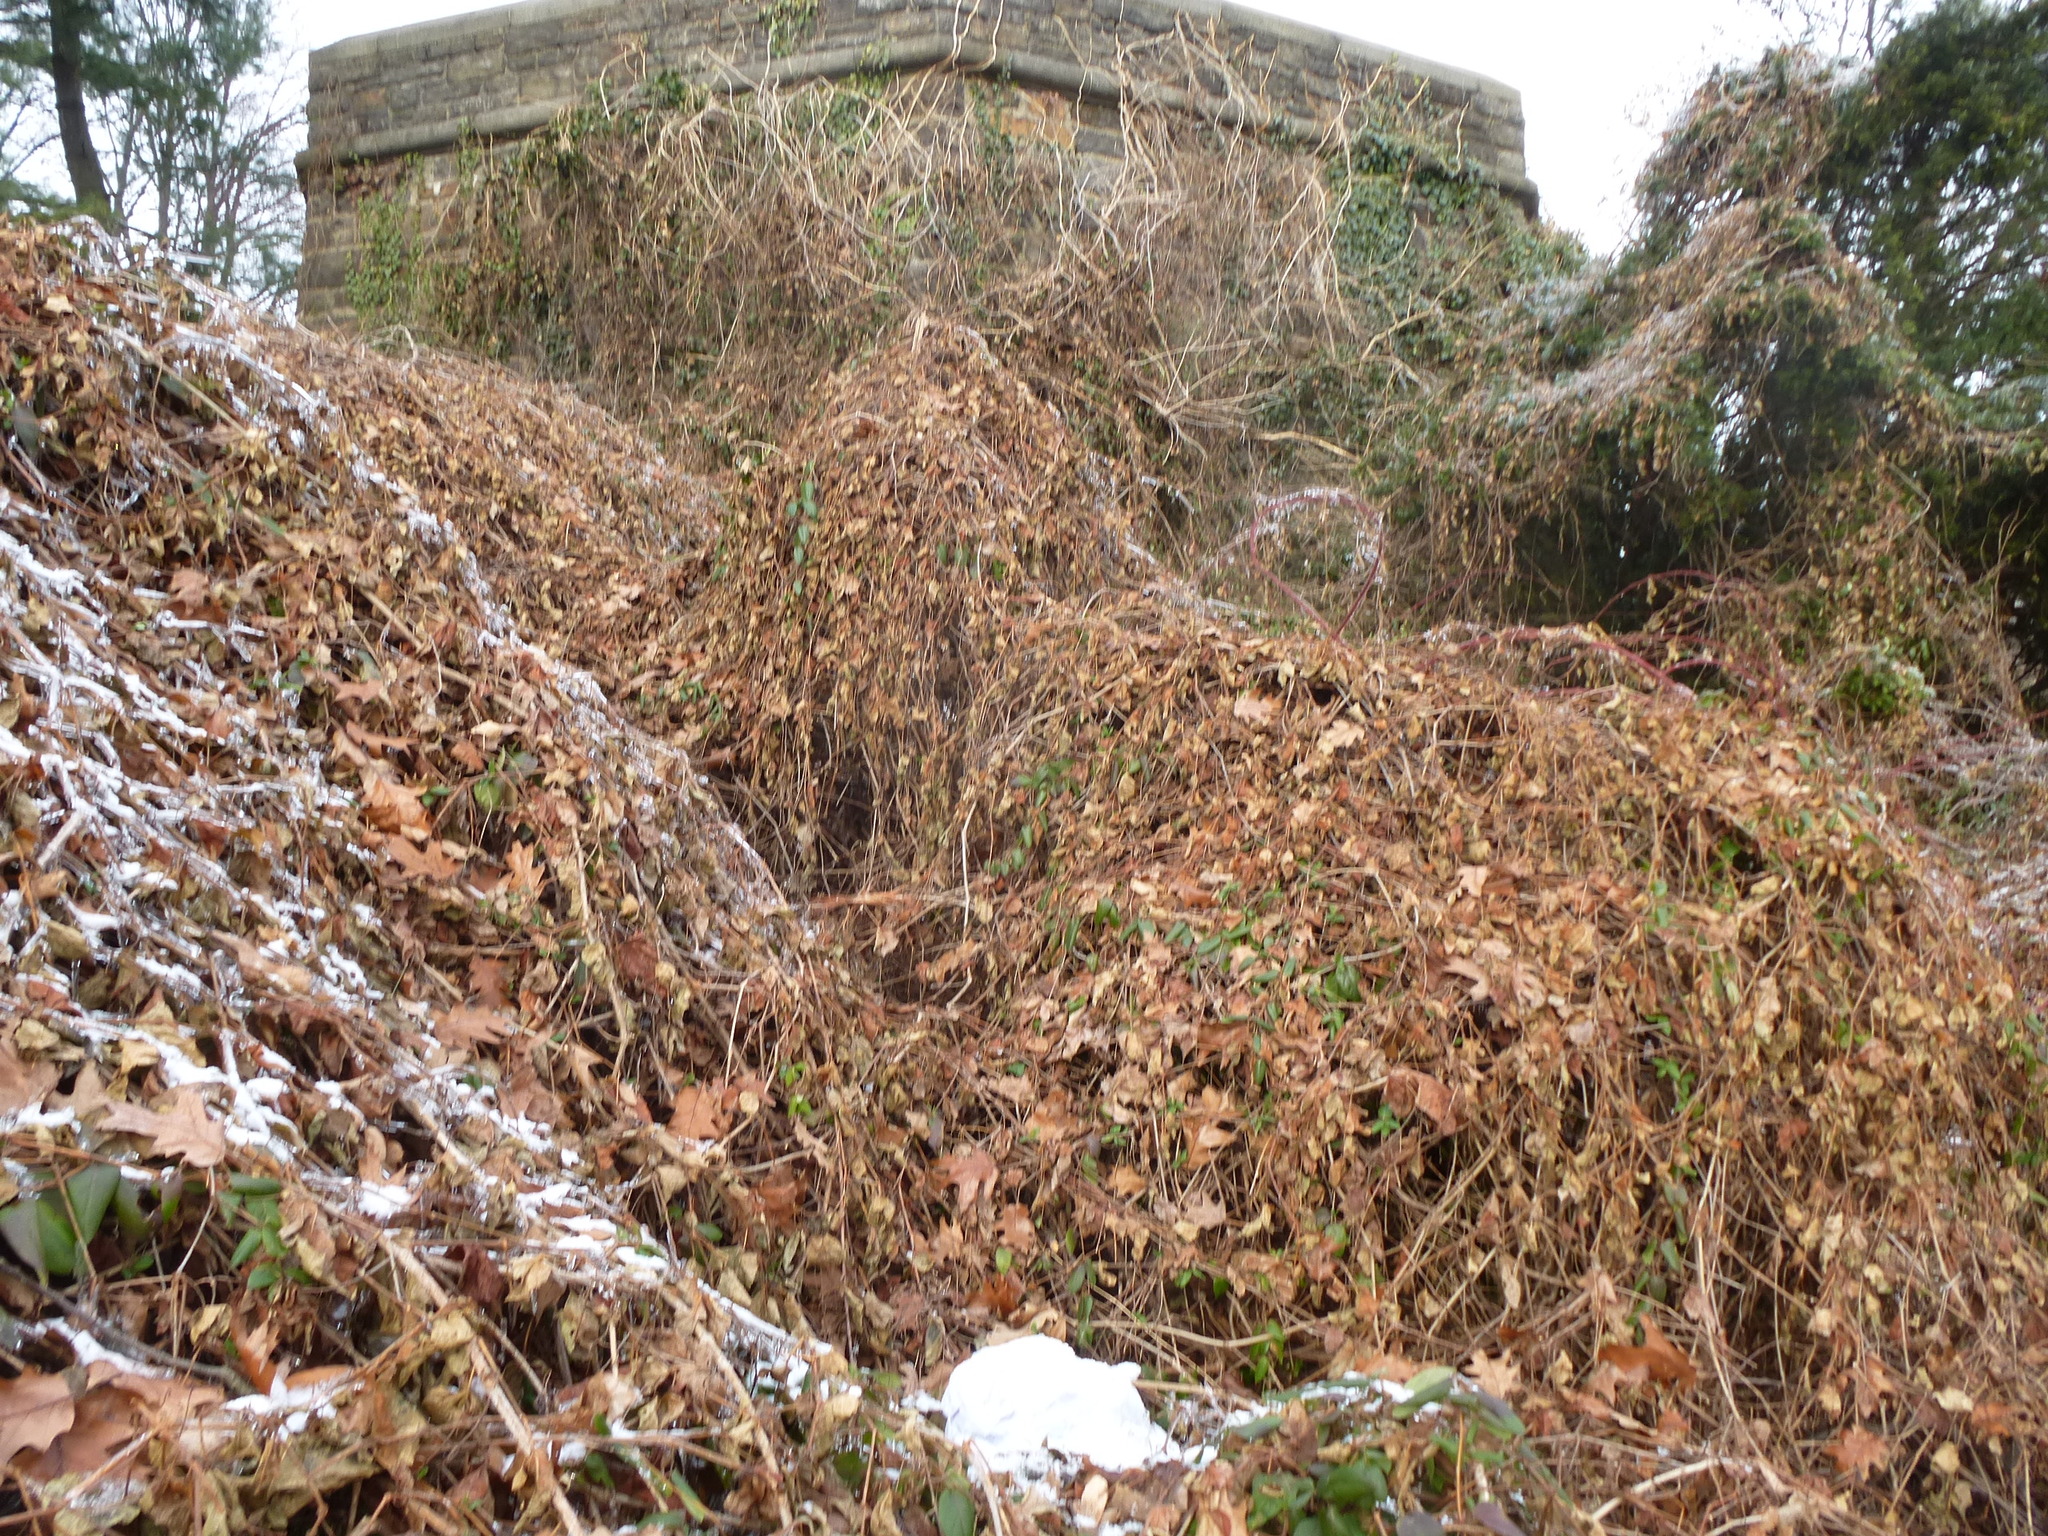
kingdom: Plantae
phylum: Tracheophyta
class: Magnoliopsida
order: Vitales
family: Vitaceae
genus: Ampelopsis
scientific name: Ampelopsis glandulosa
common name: Amur peppervine
